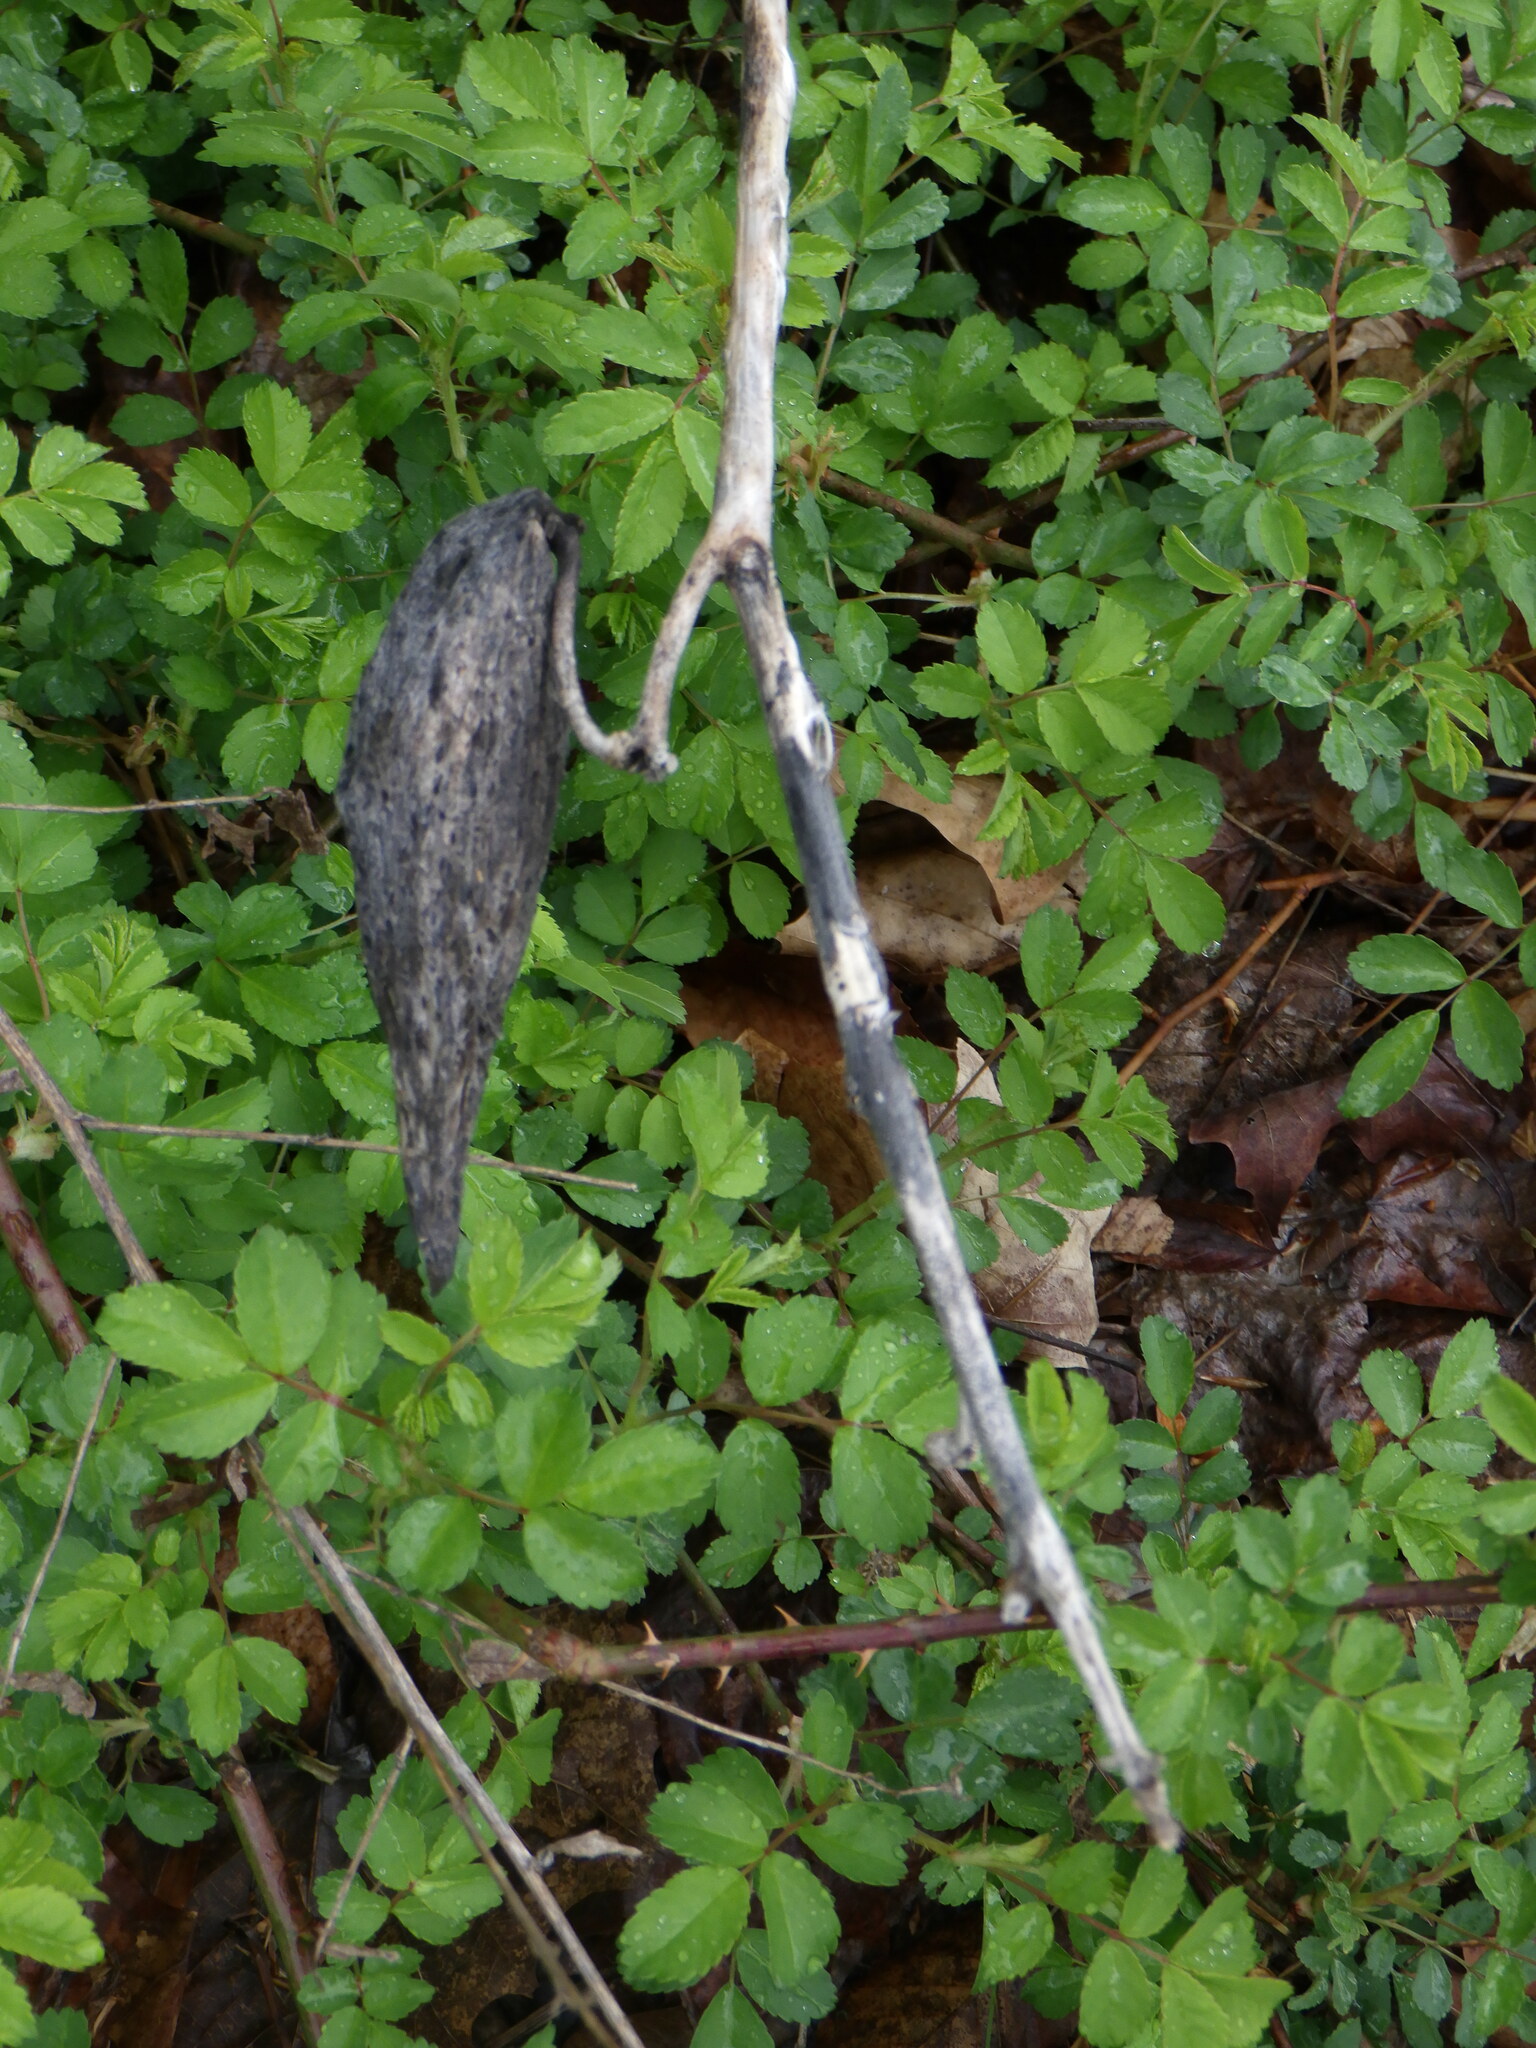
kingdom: Plantae
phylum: Tracheophyta
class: Magnoliopsida
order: Gentianales
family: Apocynaceae
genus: Asclepias
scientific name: Asclepias syriaca
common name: Common milkweed
